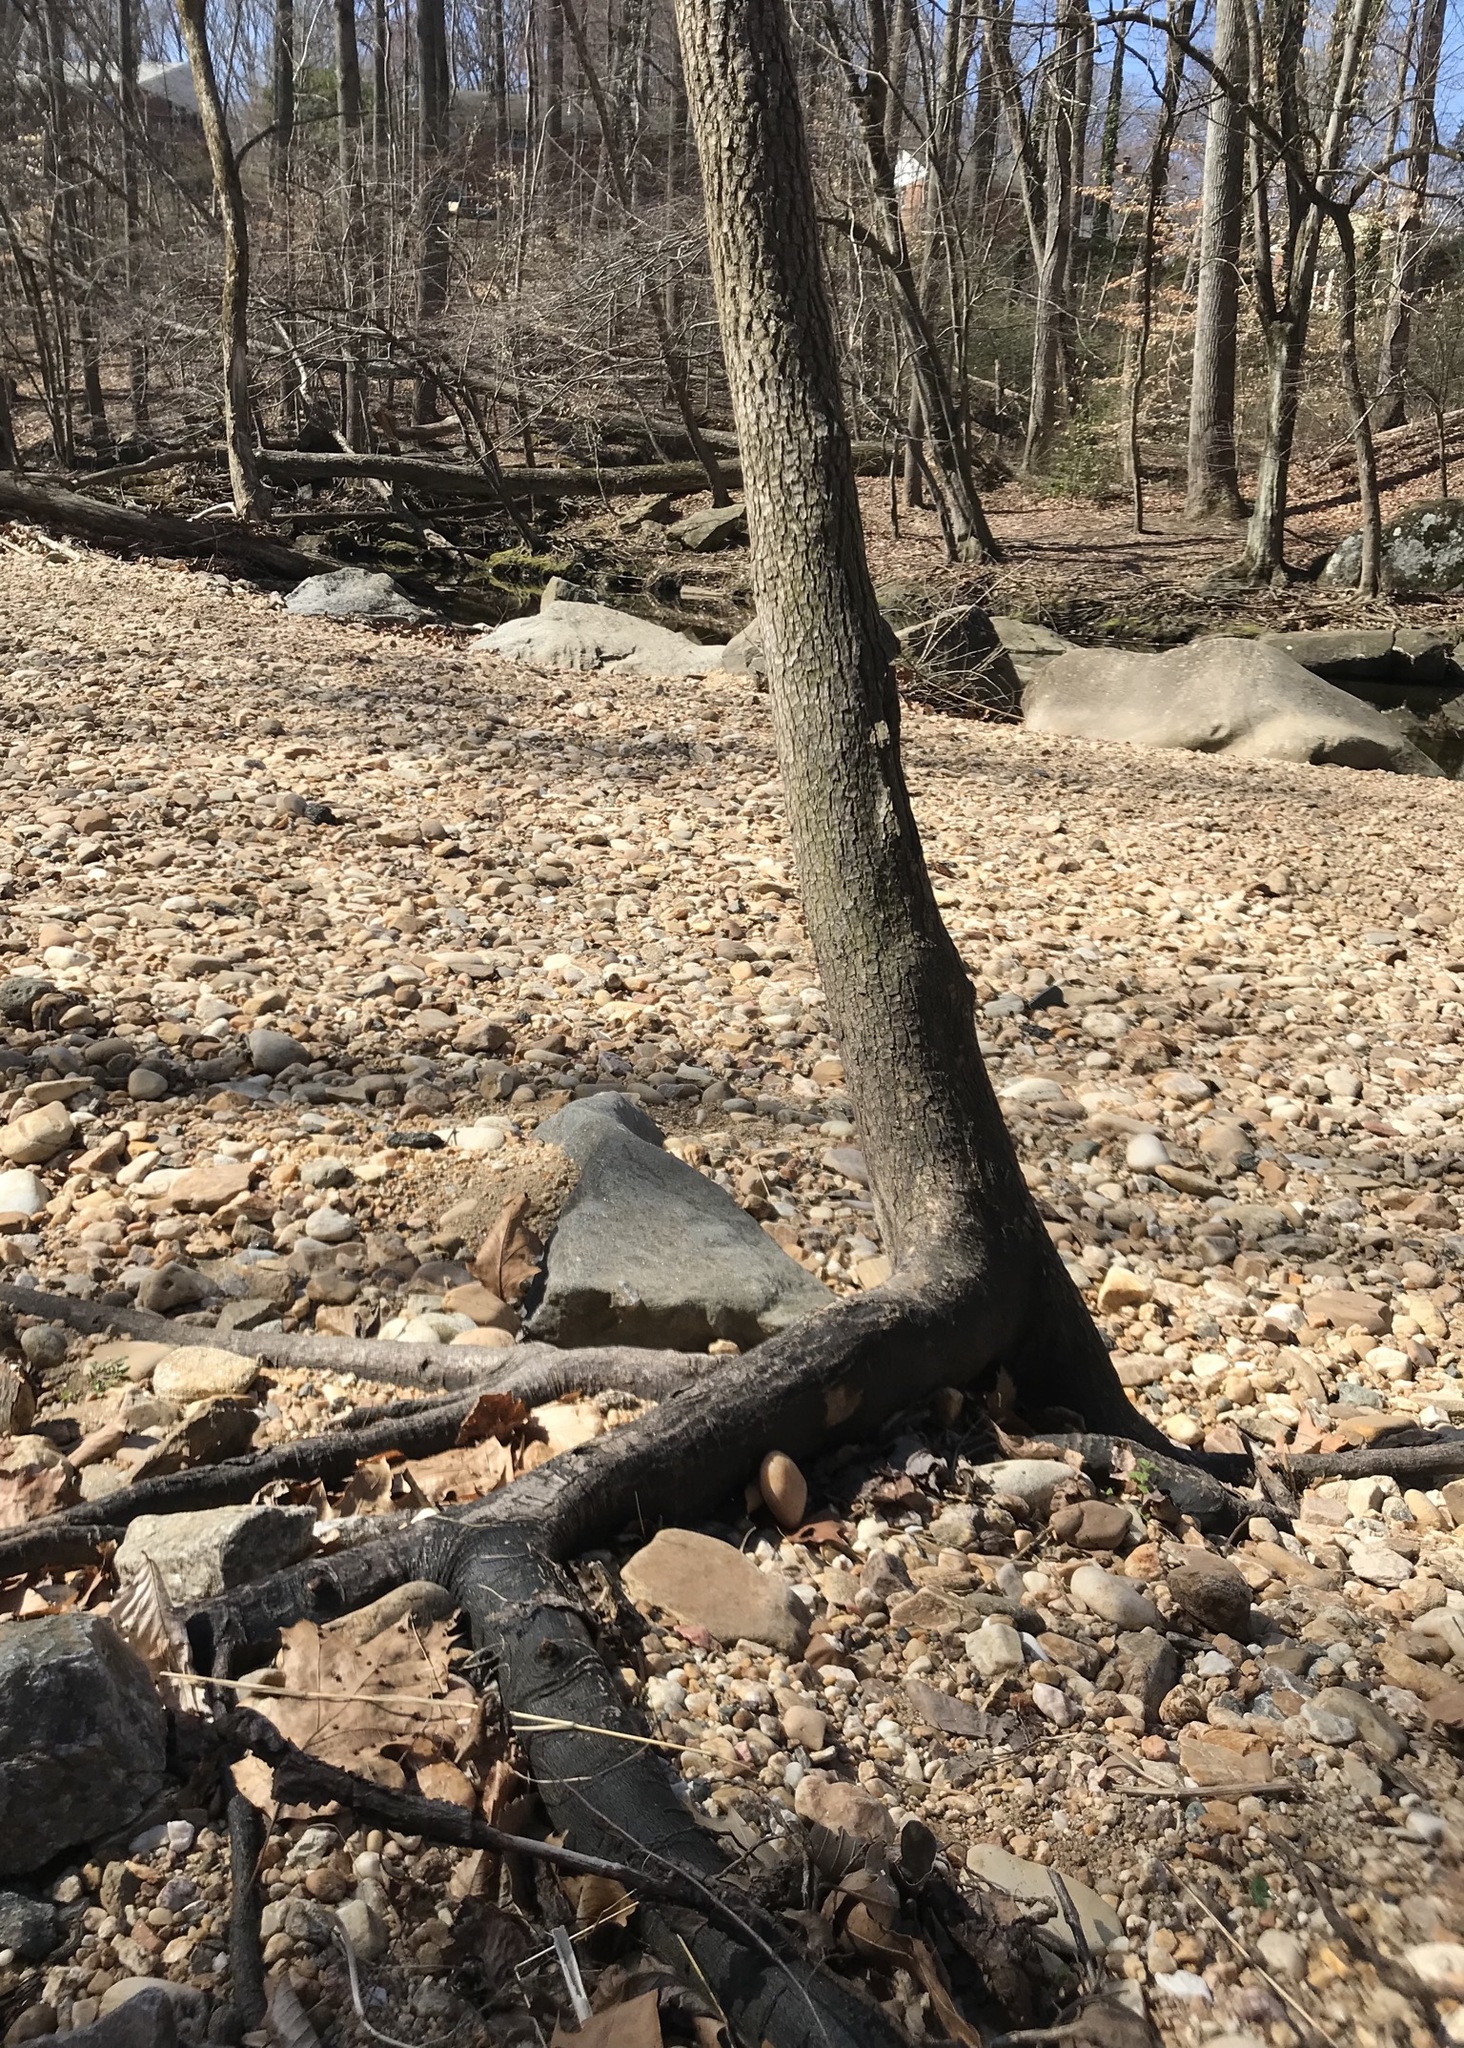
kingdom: Plantae
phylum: Tracheophyta
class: Magnoliopsida
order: Ericales
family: Ebenaceae
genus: Diospyros
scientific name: Diospyros virginiana
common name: Persimmon
